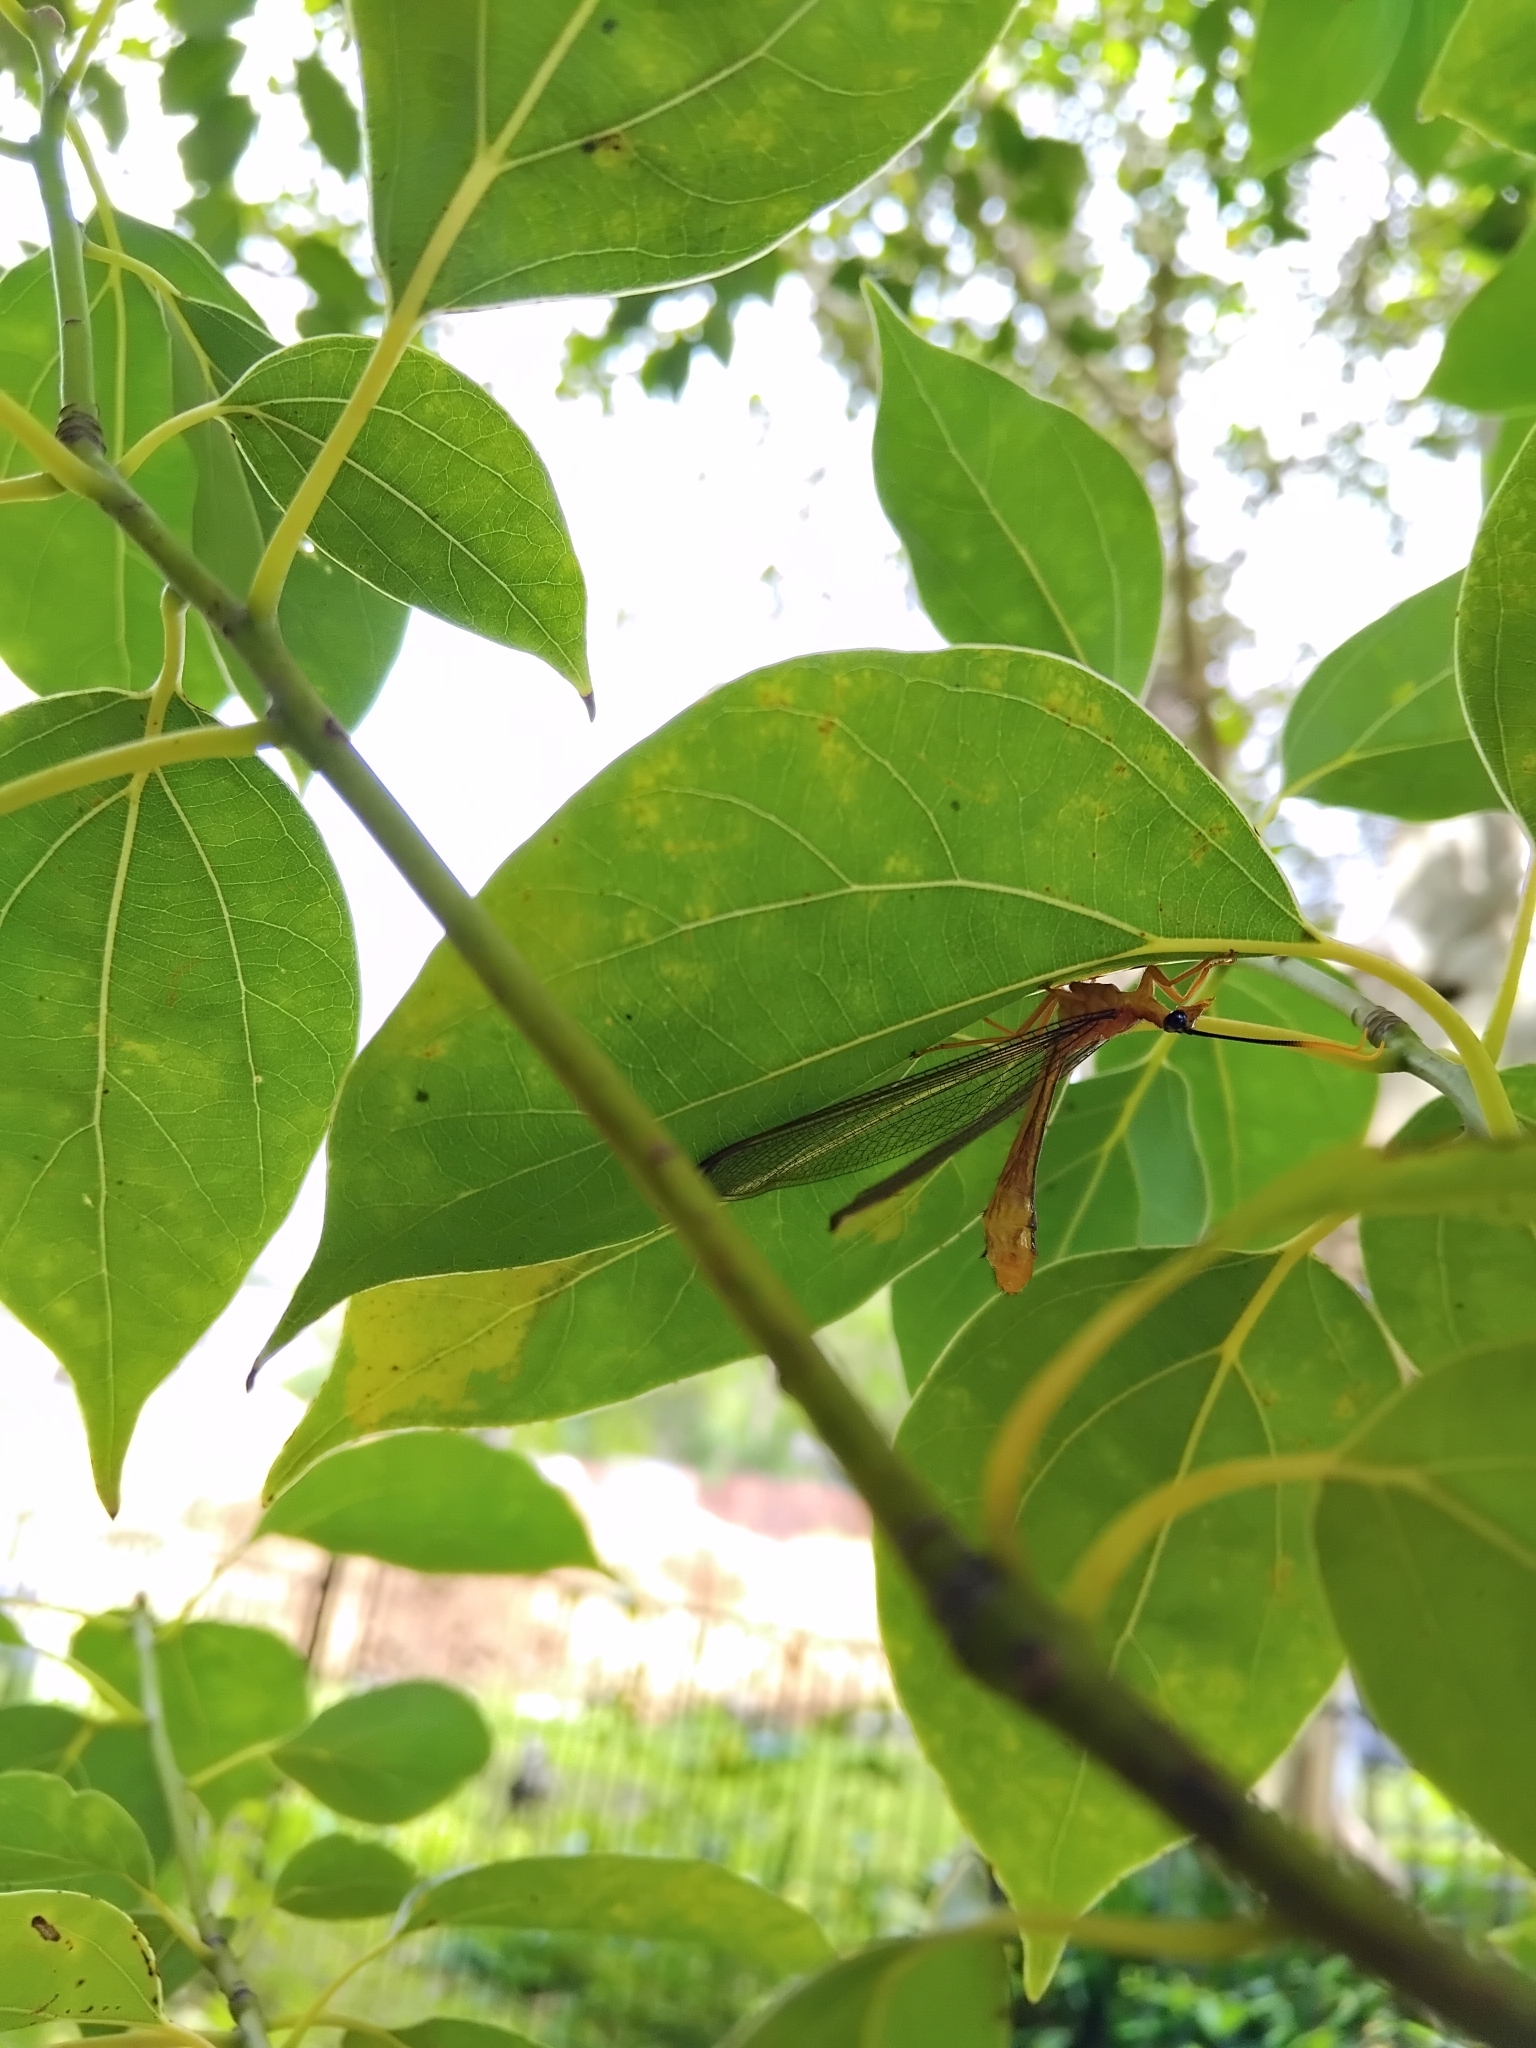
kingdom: Animalia
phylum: Arthropoda
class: Insecta
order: Neuroptera
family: Nymphidae
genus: Nymphes
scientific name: Nymphes myrmeleonoides
